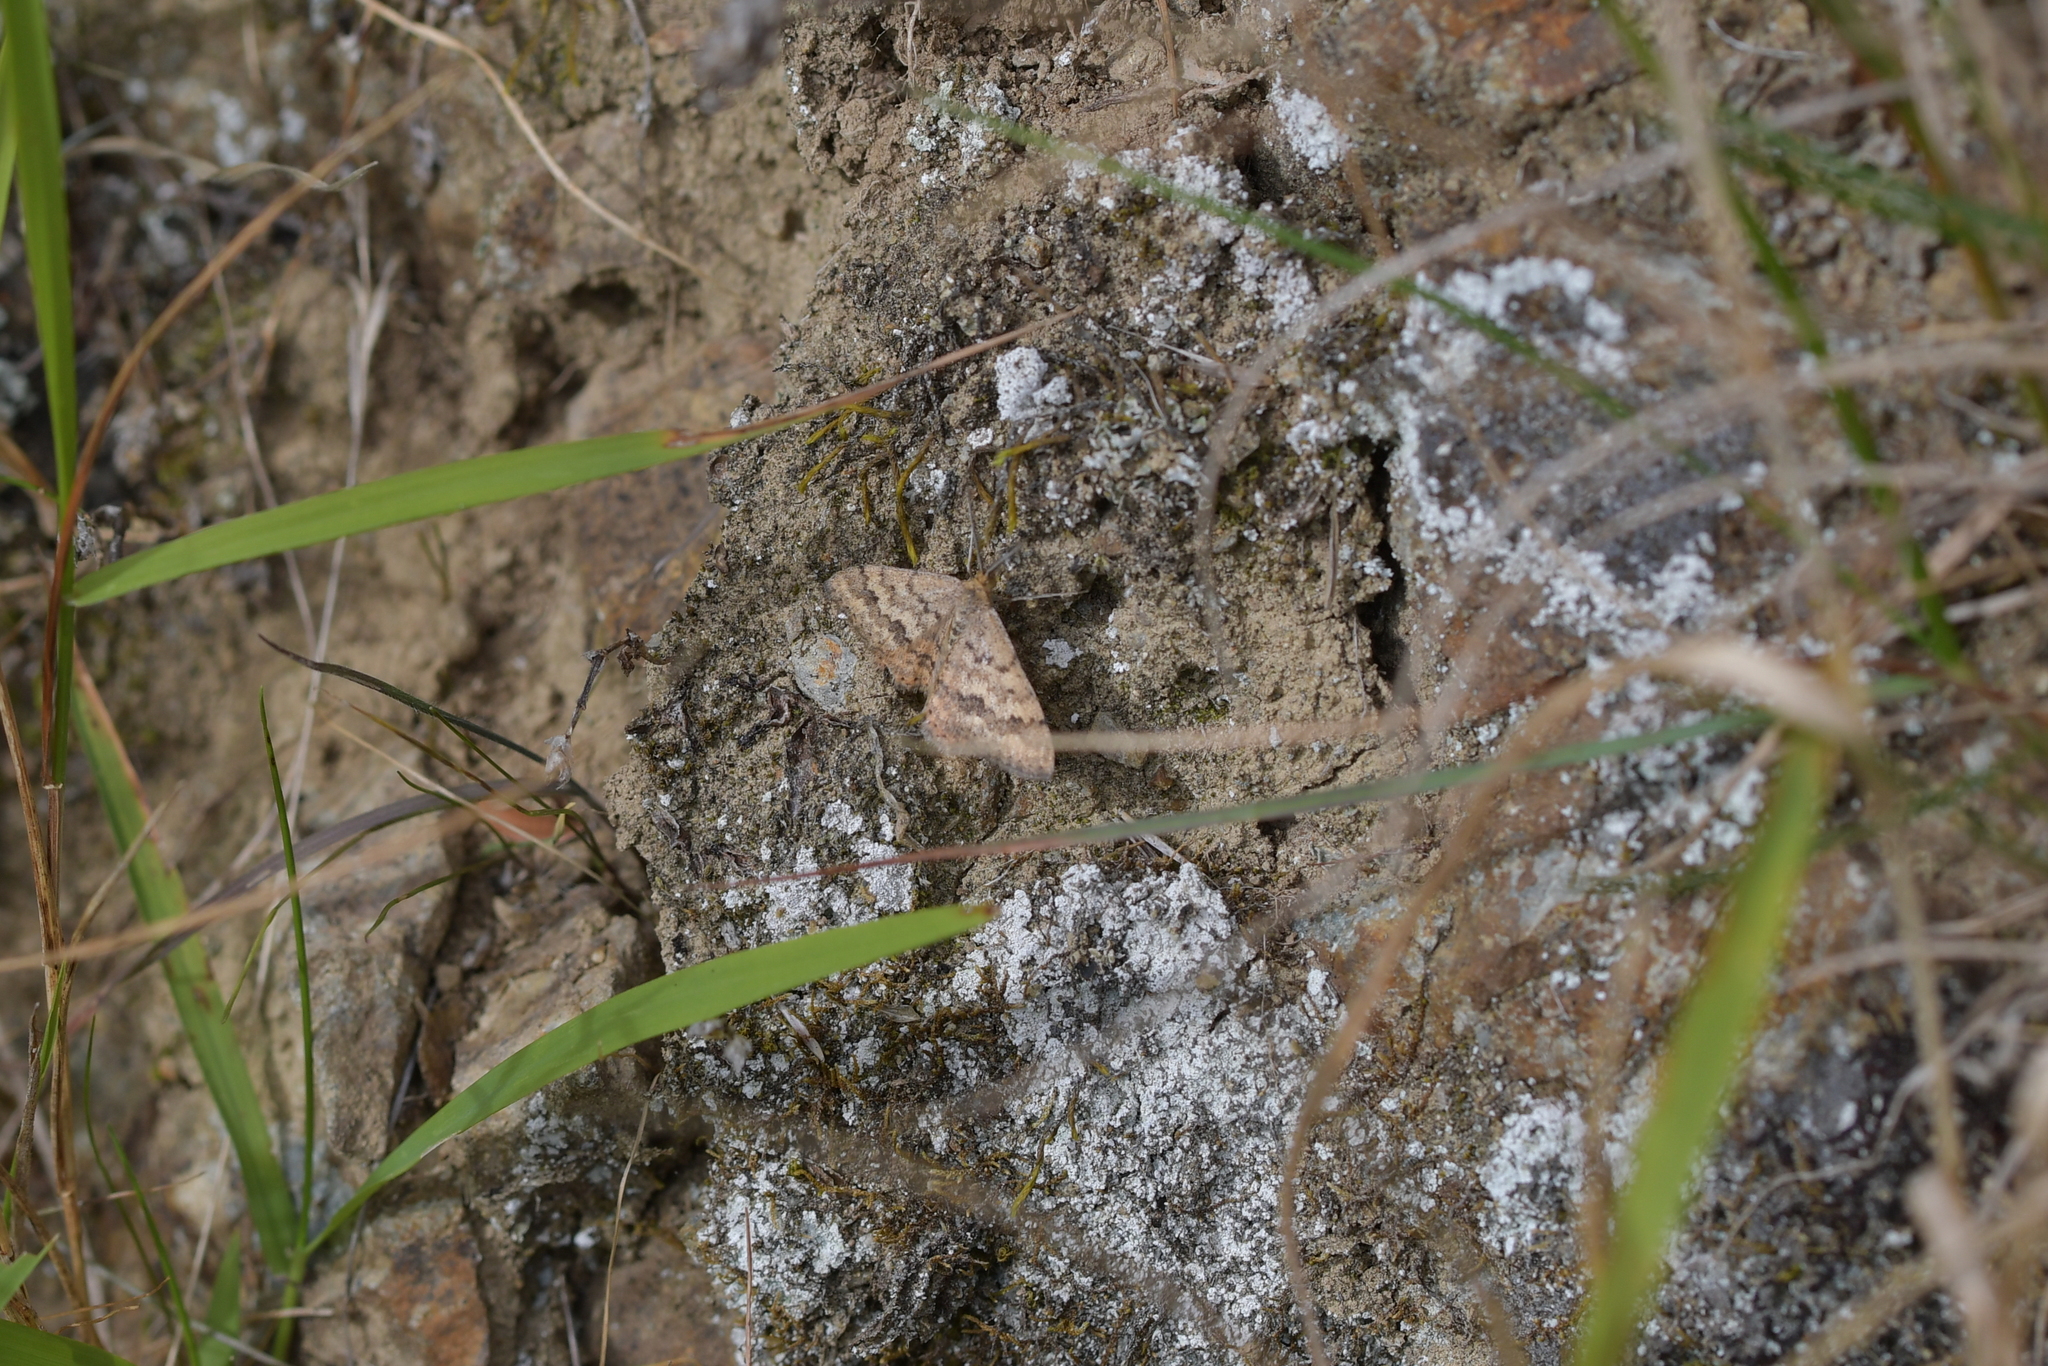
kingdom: Animalia
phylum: Arthropoda
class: Insecta
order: Lepidoptera
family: Geometridae
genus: Scopula
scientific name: Scopula rubraria
